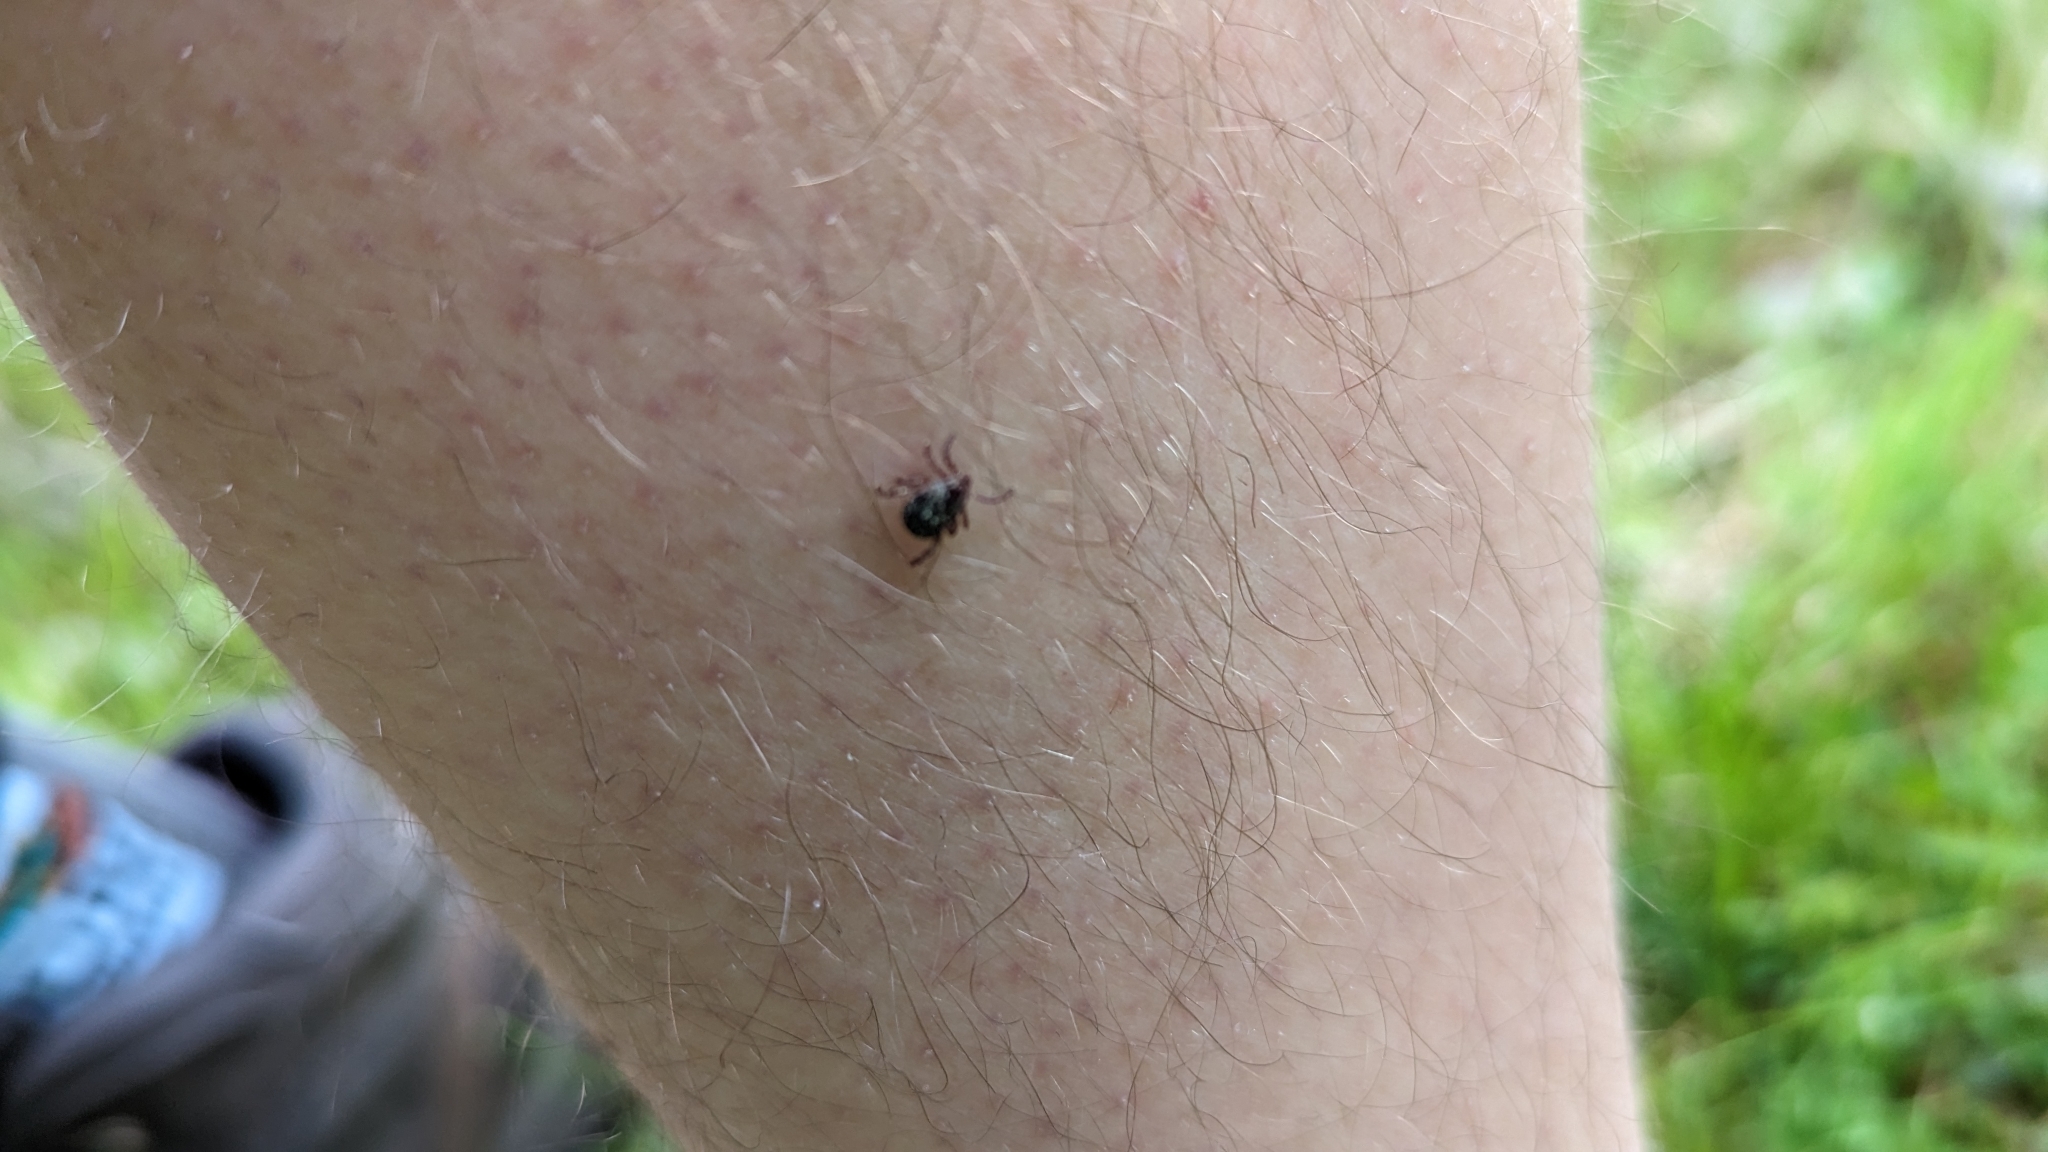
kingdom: Animalia
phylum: Arthropoda
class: Arachnida
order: Ixodida
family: Ixodidae
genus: Dermacentor
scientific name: Dermacentor variabilis
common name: American dog tick
